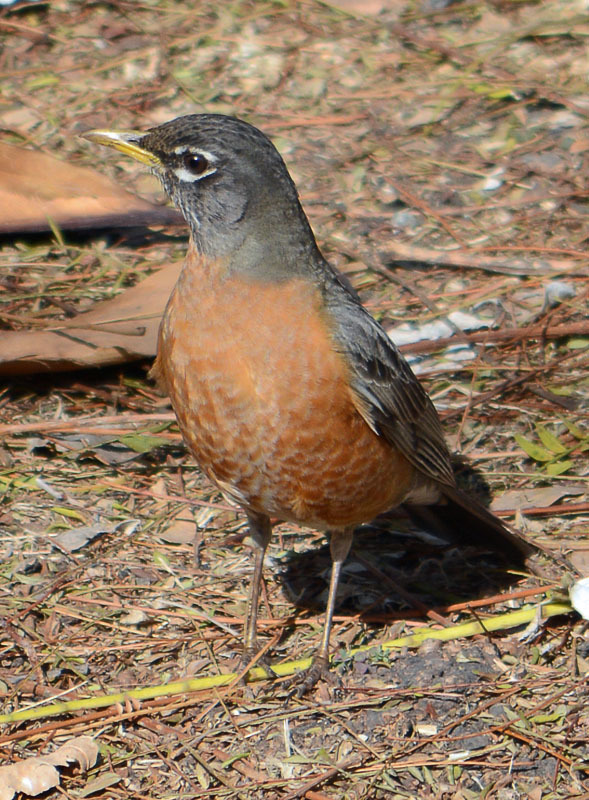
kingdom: Animalia
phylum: Chordata
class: Aves
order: Passeriformes
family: Turdidae
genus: Turdus
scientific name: Turdus migratorius
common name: American robin
